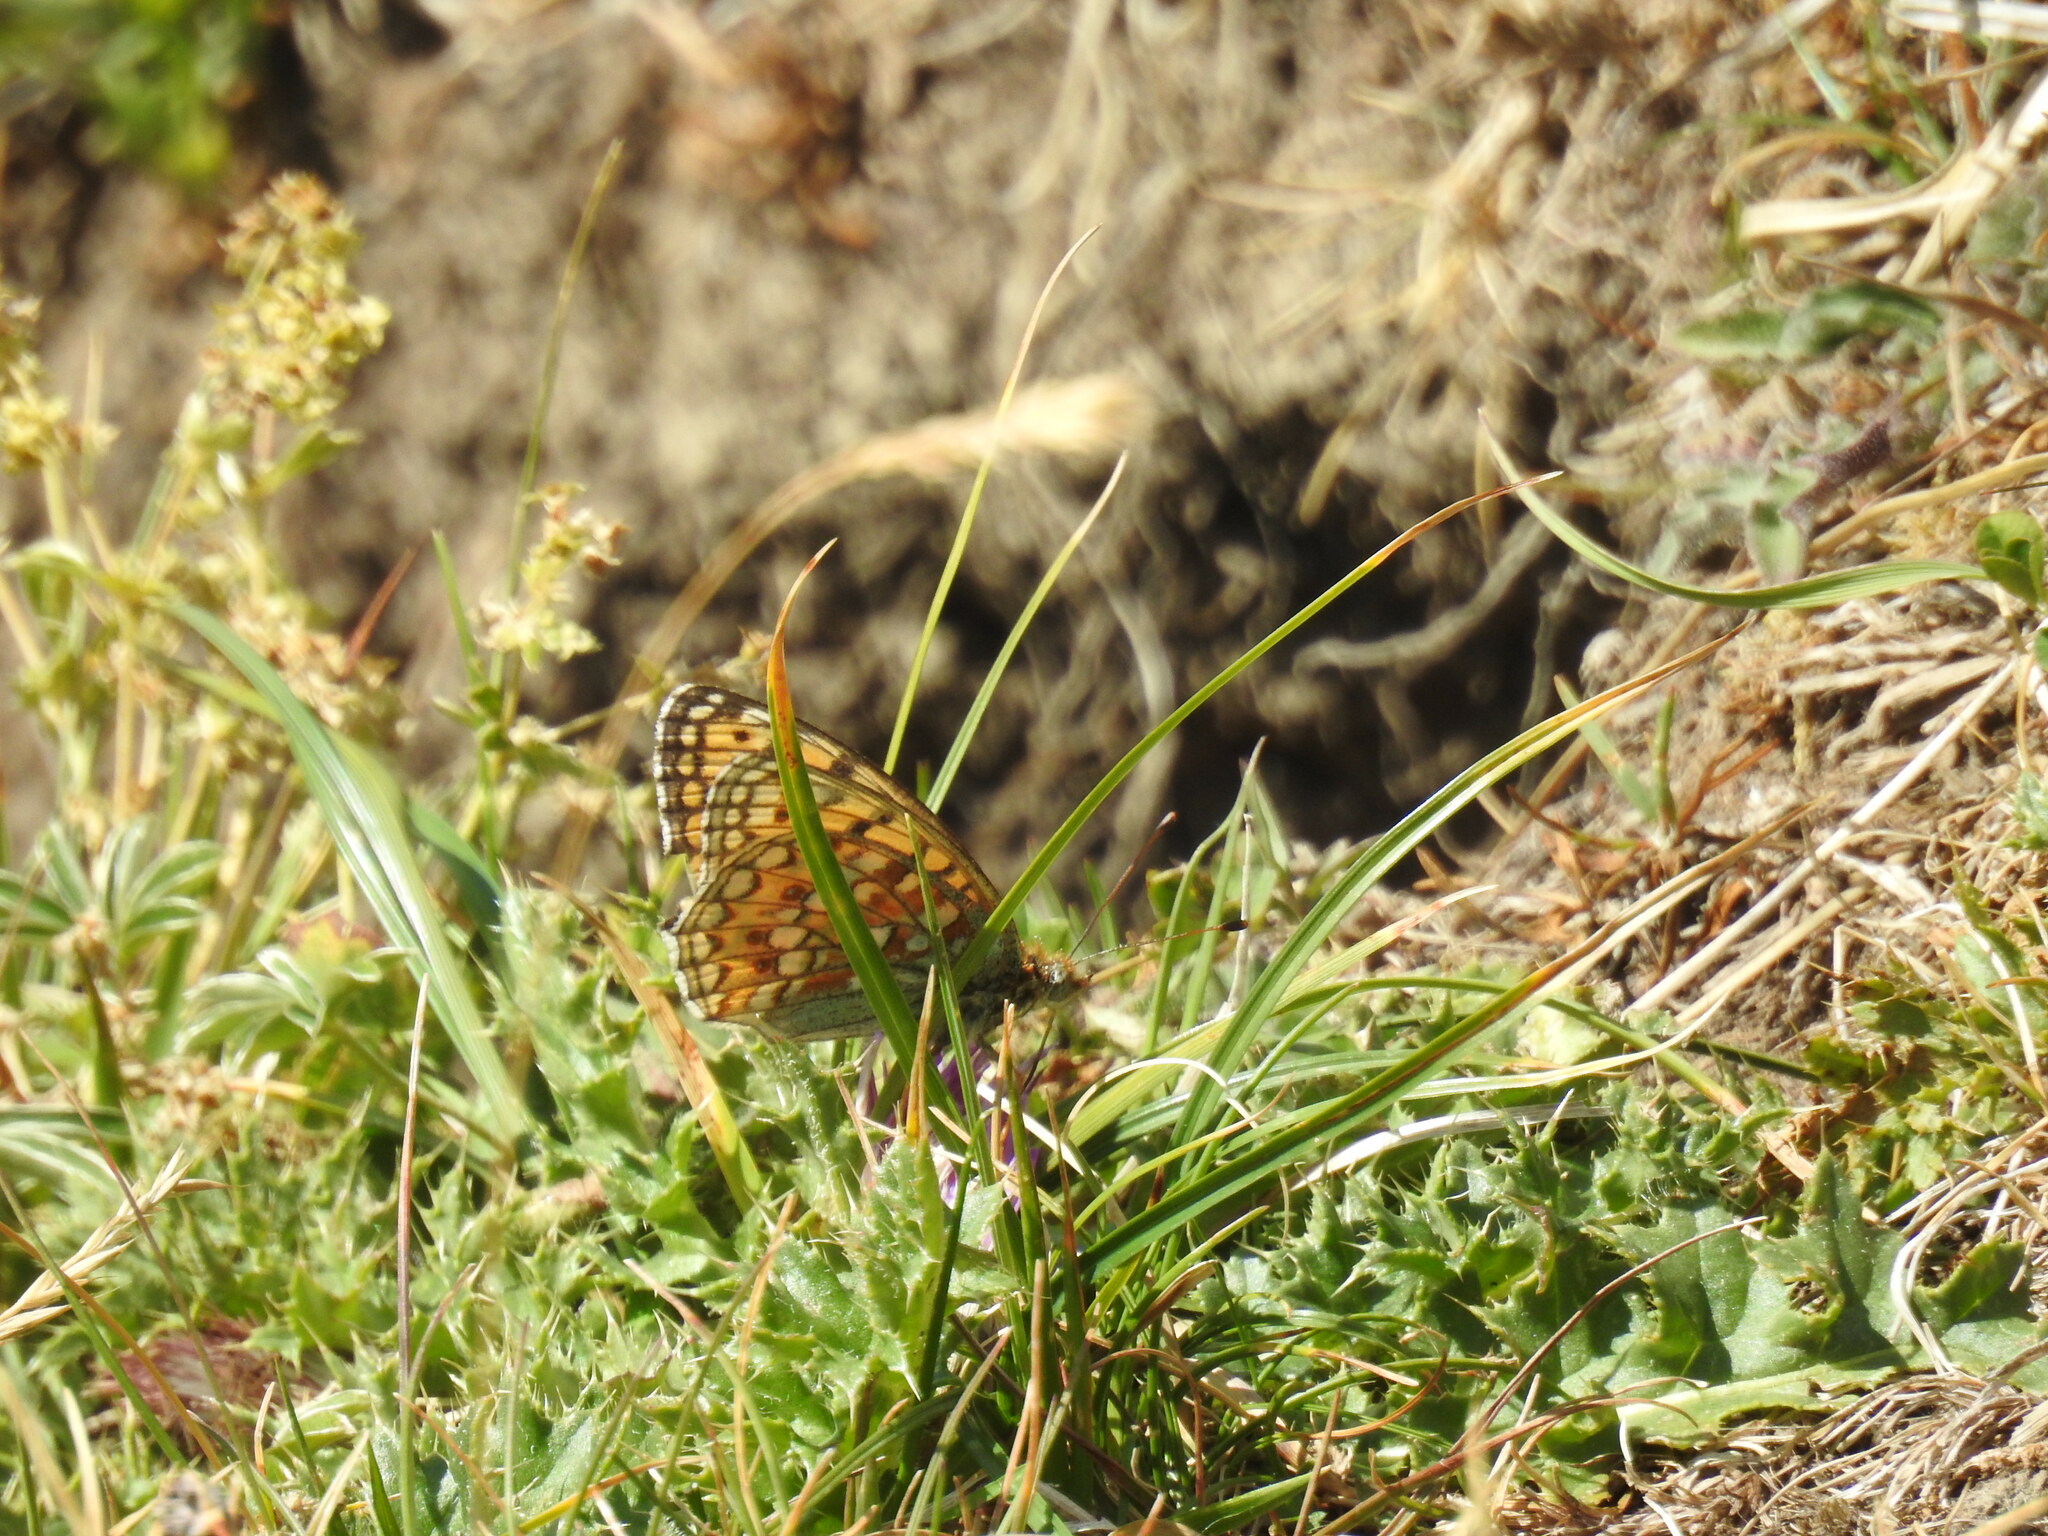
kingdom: Animalia
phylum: Arthropoda
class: Insecta
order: Lepidoptera
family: Nymphalidae
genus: Fabriciana
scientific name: Fabriciana niobe
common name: Niobe fritillary
